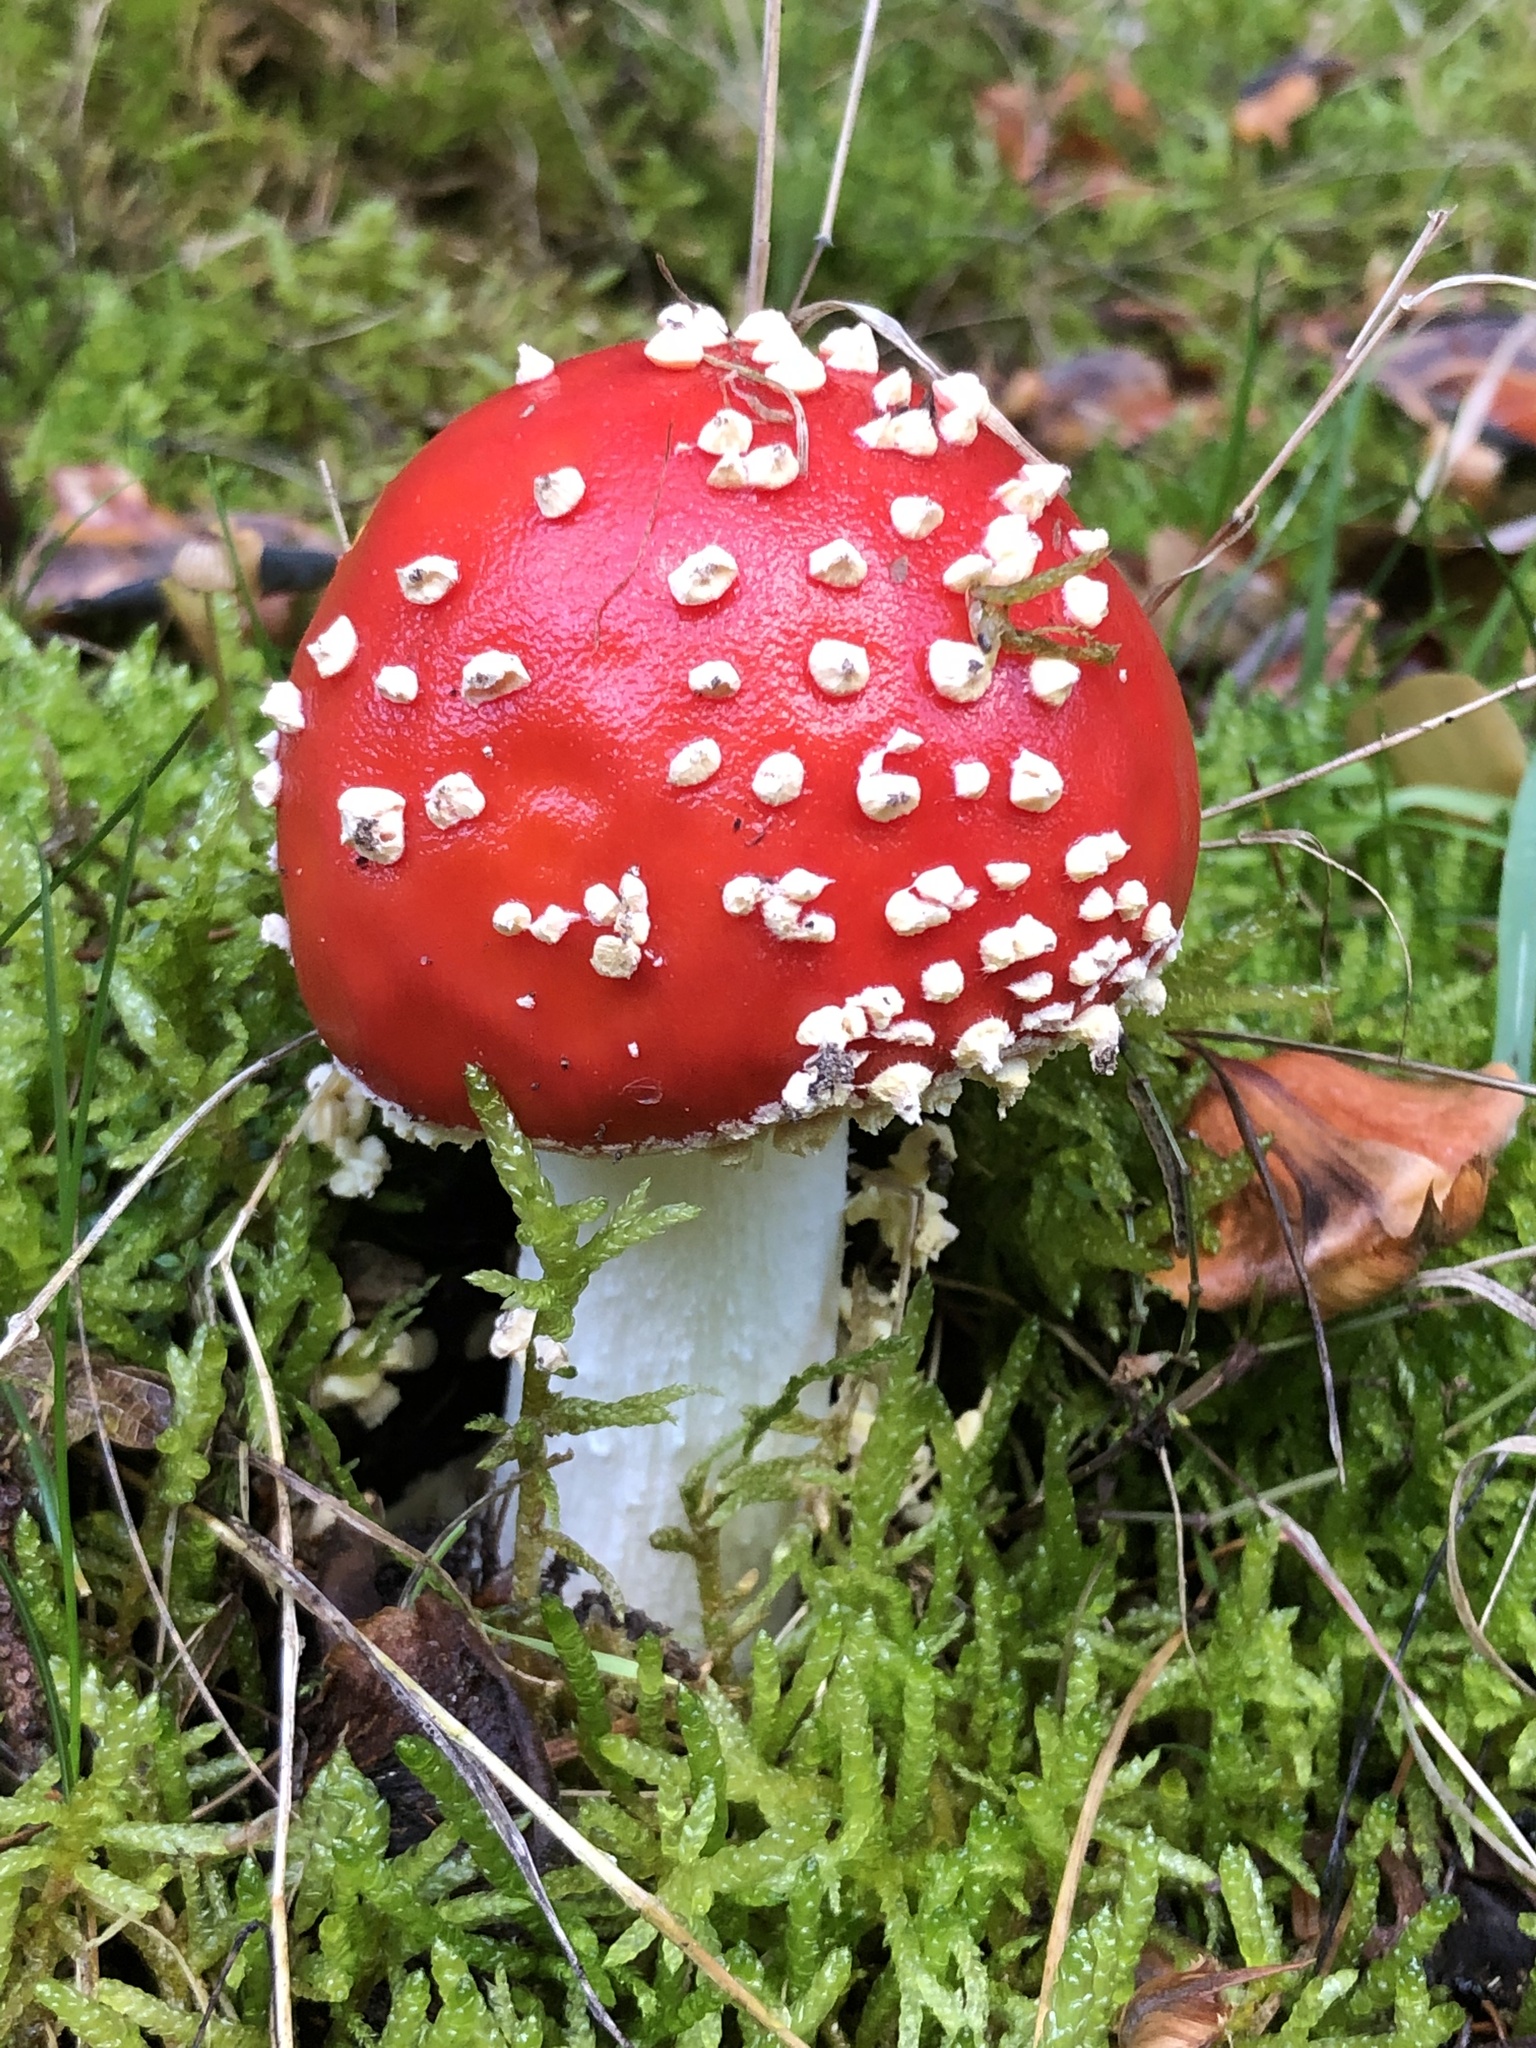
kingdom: Fungi
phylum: Basidiomycota
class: Agaricomycetes
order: Agaricales
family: Amanitaceae
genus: Amanita
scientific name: Amanita muscaria
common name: Fly agaric
